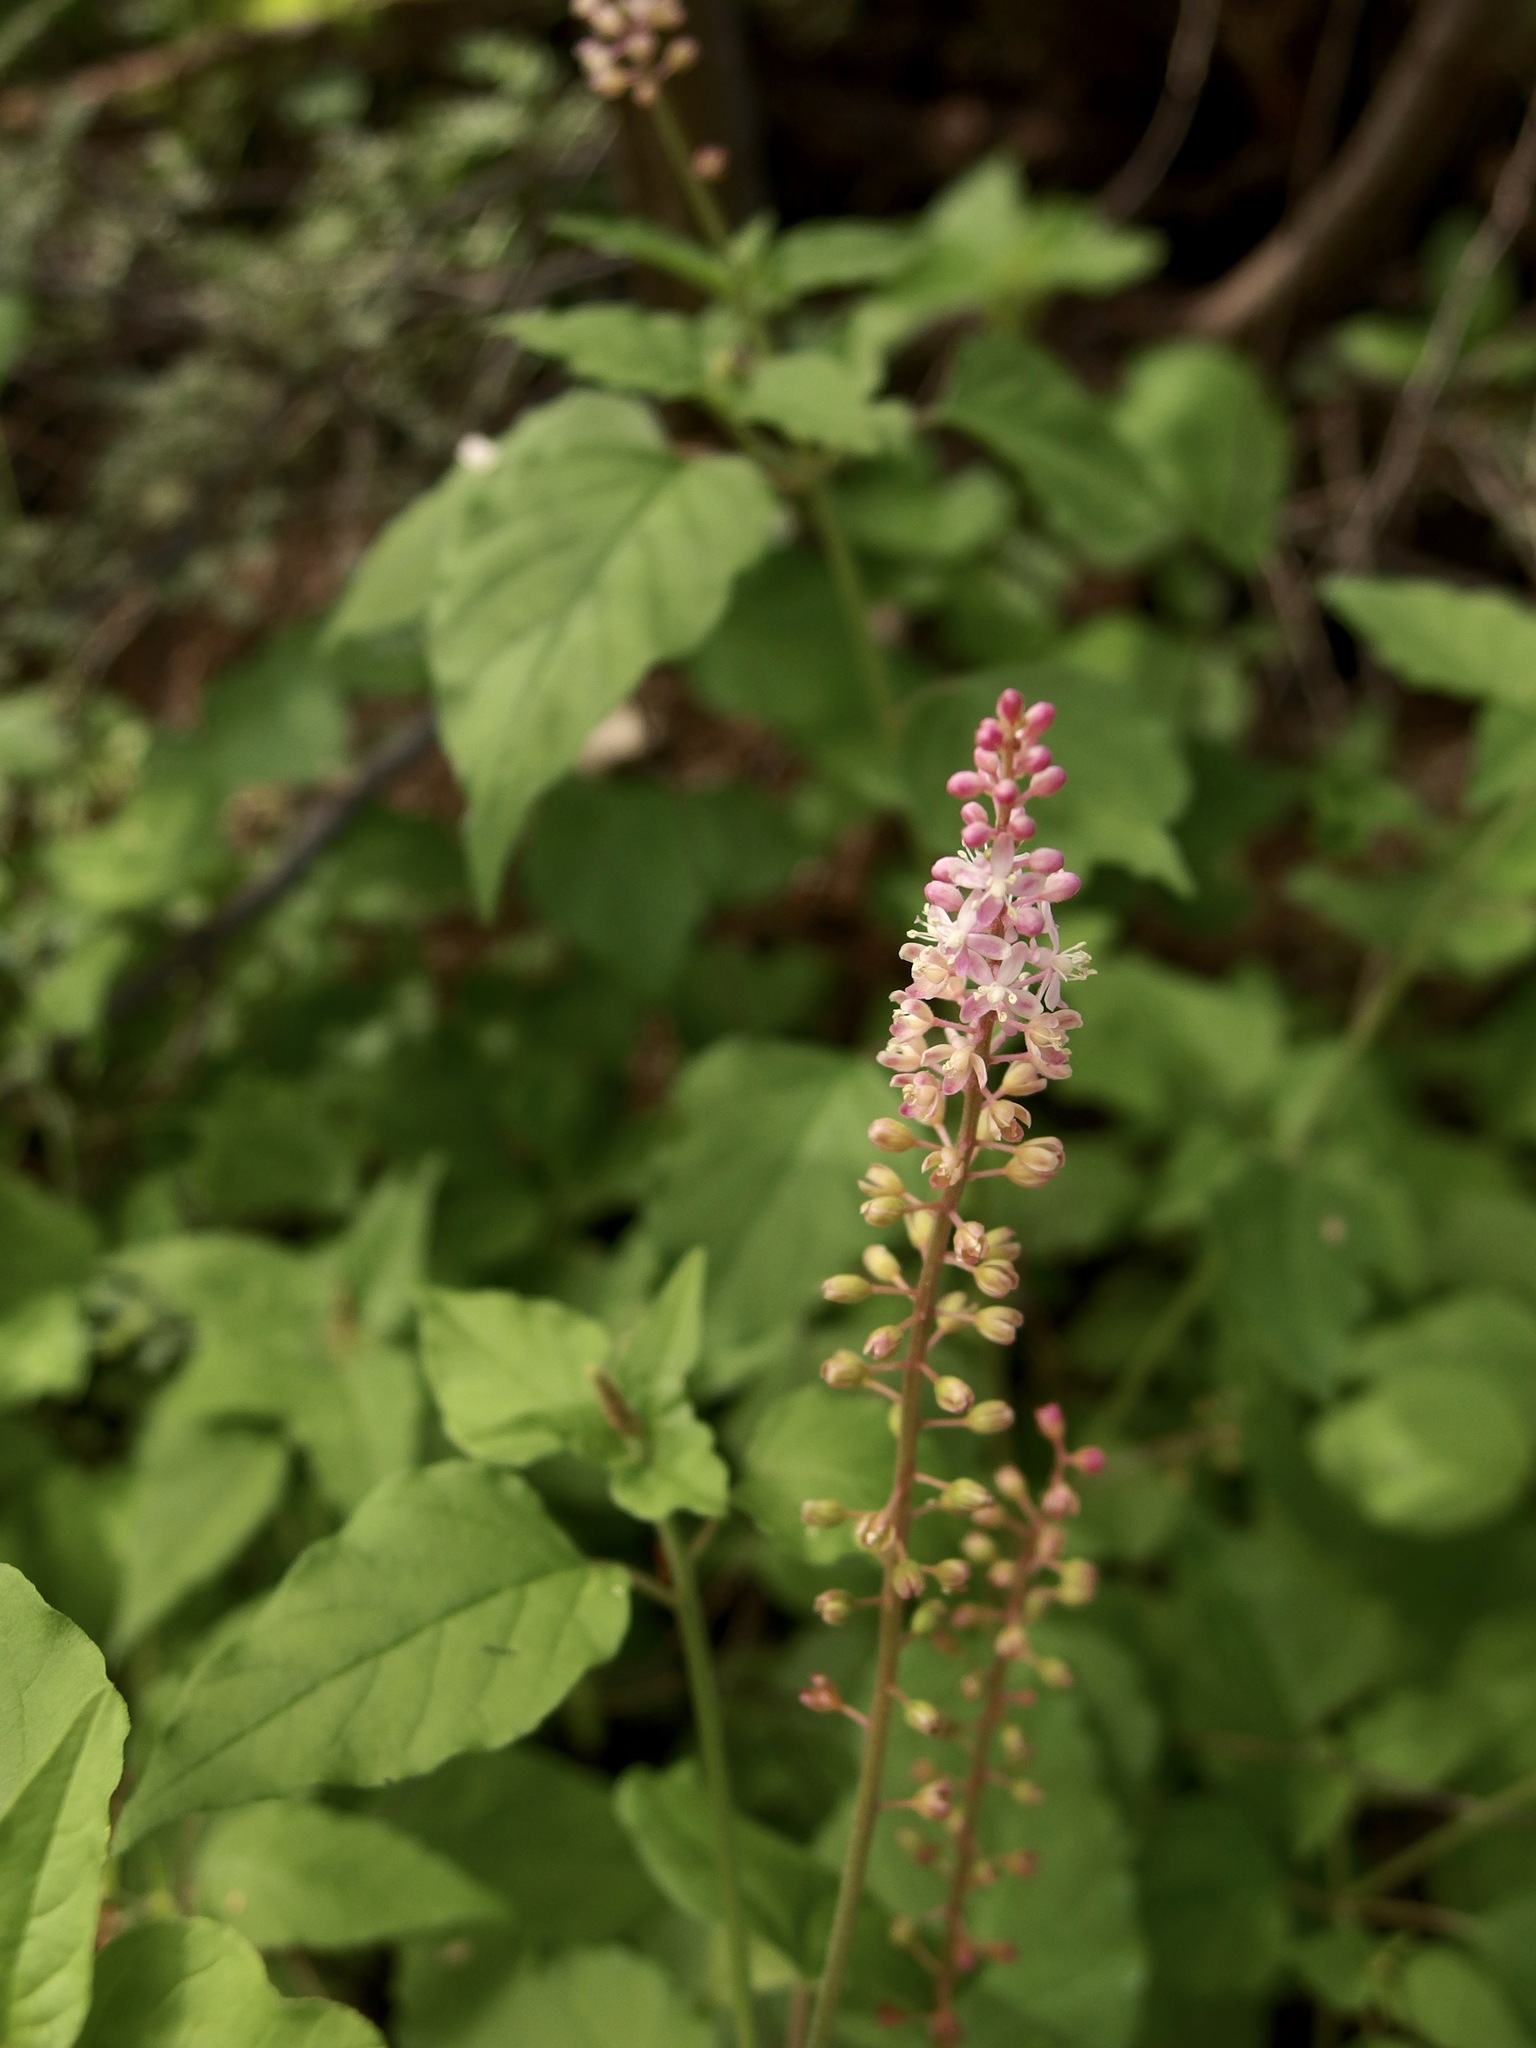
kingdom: Plantae
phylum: Tracheophyta
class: Magnoliopsida
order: Caryophyllales
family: Phytolaccaceae
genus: Rivina
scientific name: Rivina humilis
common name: Rougeplant
